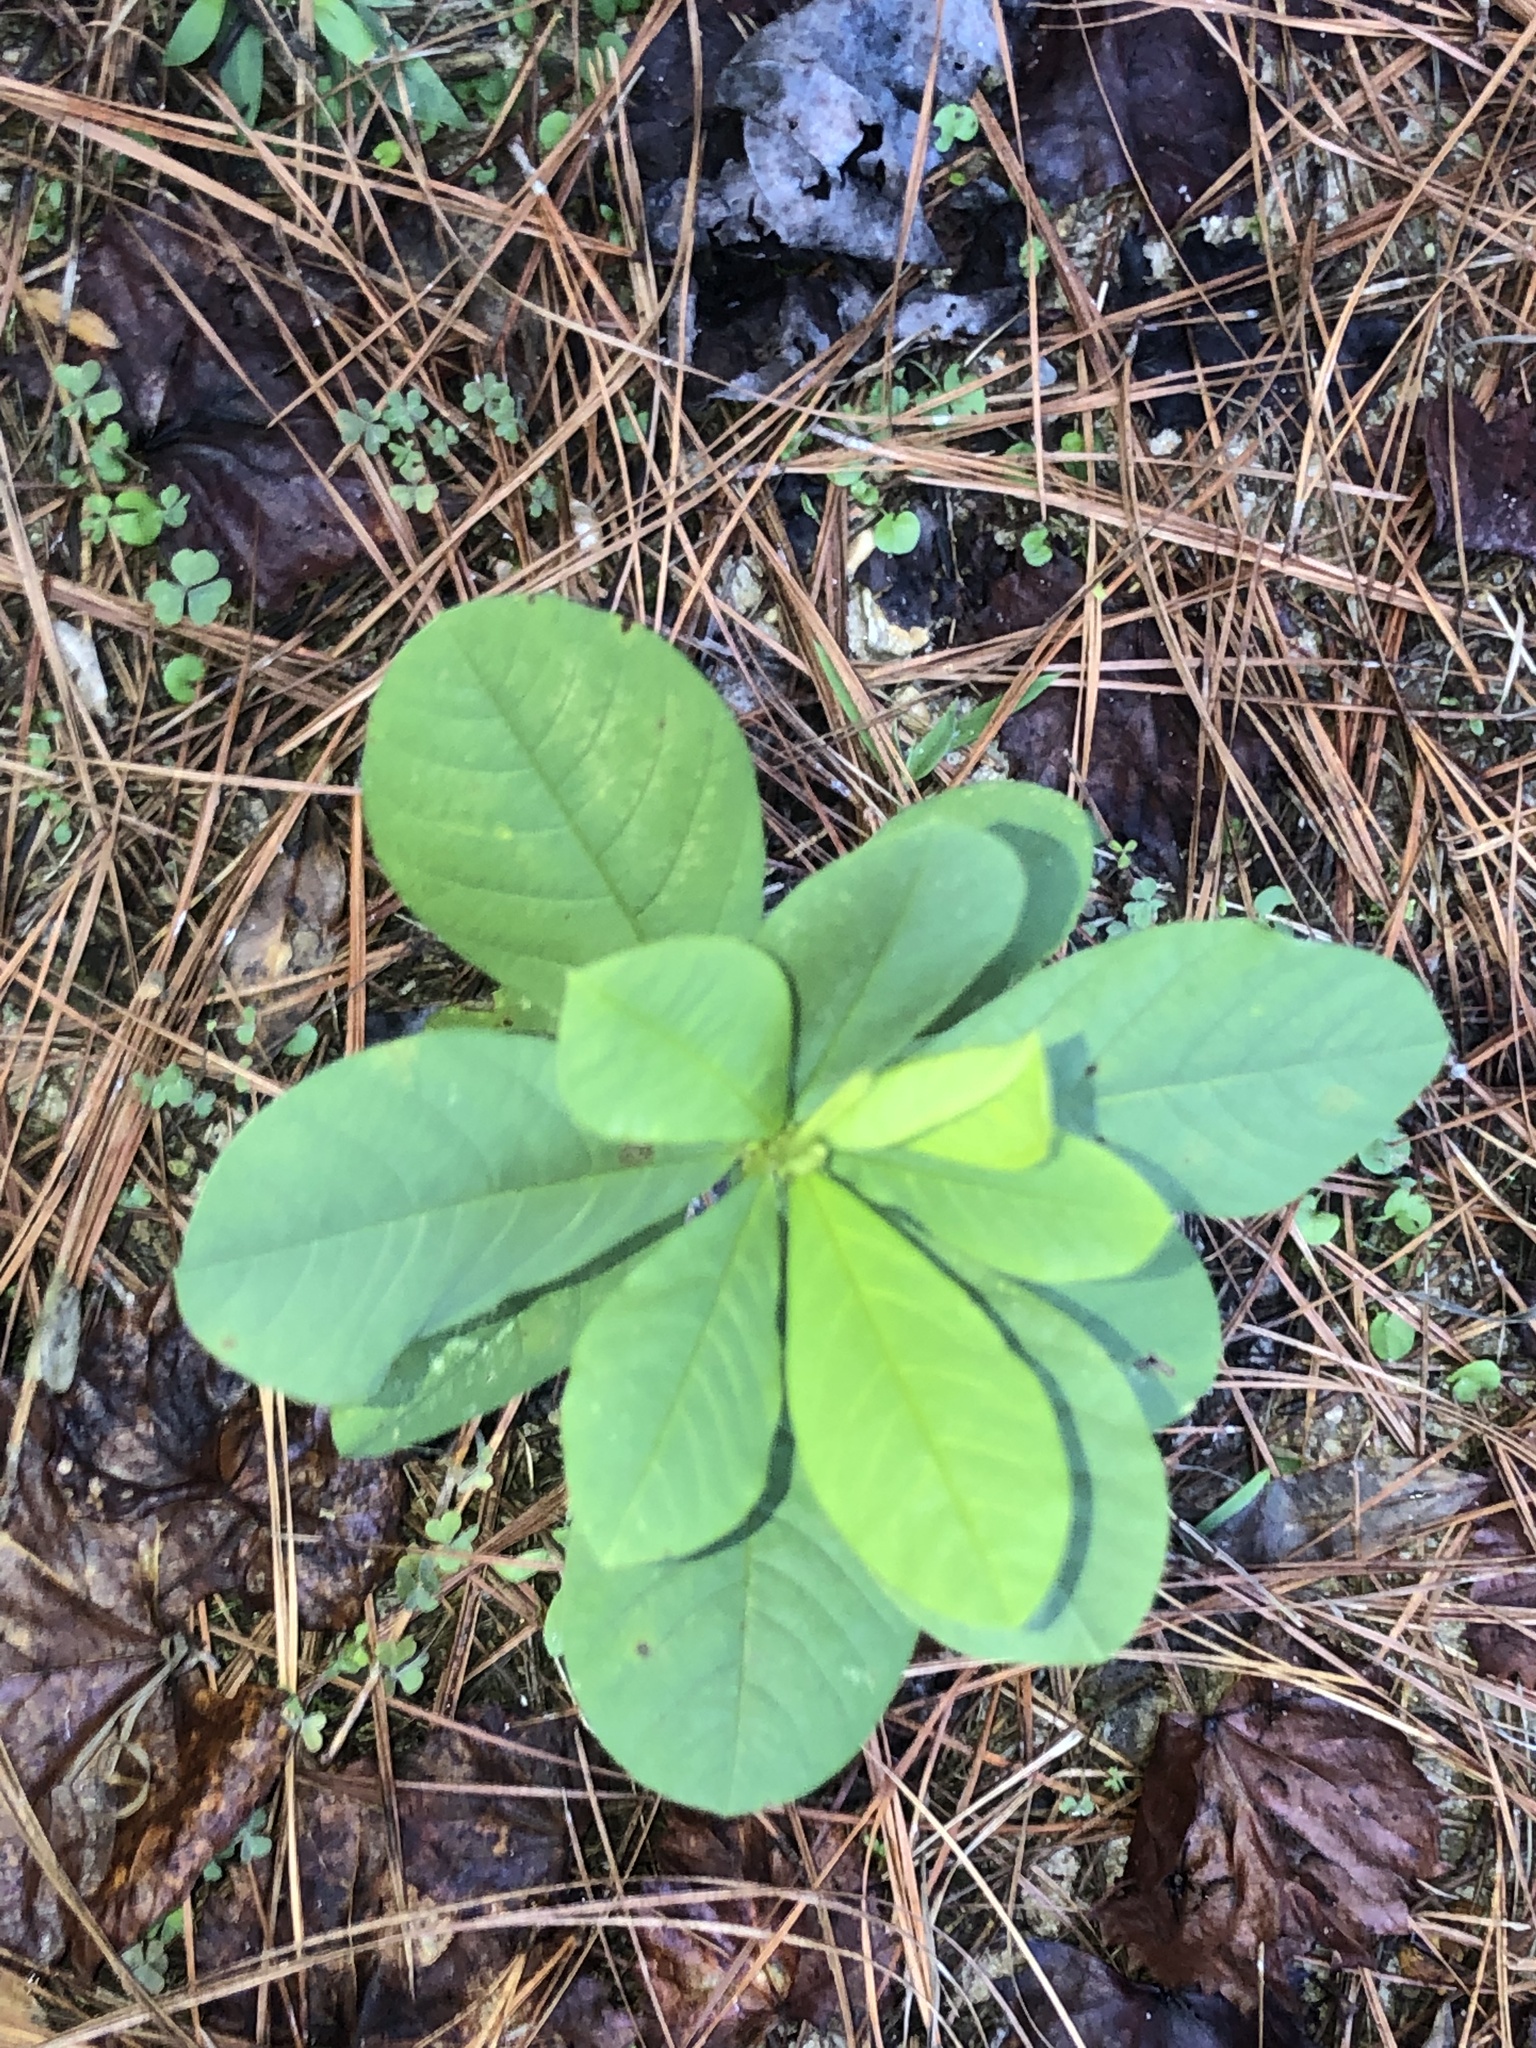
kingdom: Plantae
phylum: Tracheophyta
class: Magnoliopsida
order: Fabales
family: Fabaceae
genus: Crotalaria
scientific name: Crotalaria spectabilis
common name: Showy rattlebox
